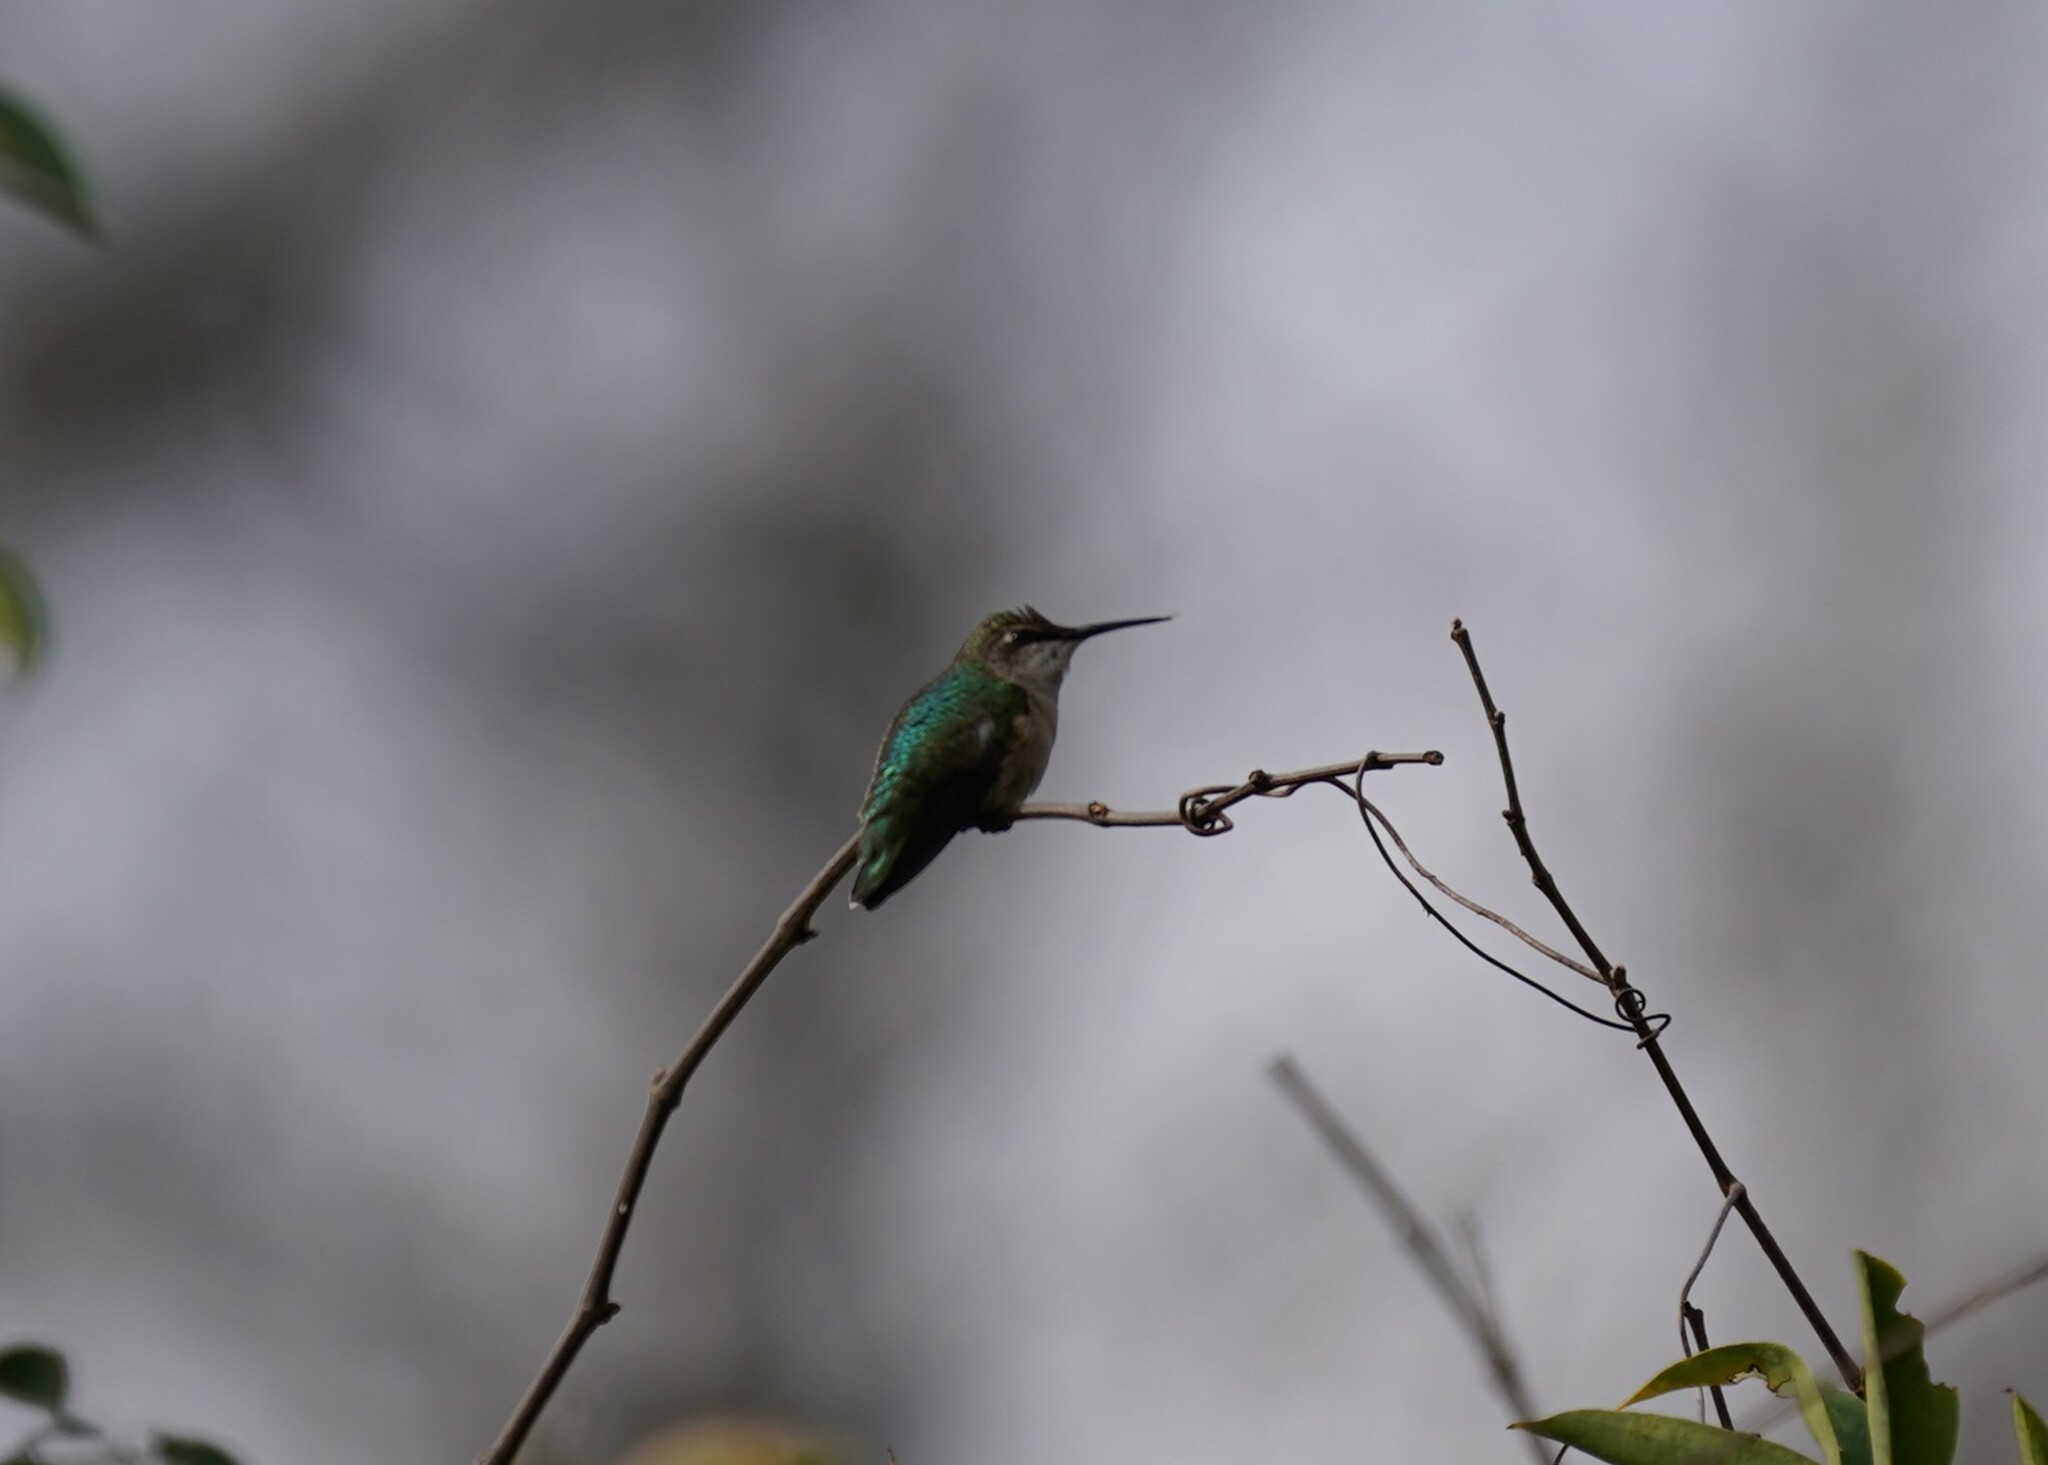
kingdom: Animalia
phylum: Chordata
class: Aves
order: Apodiformes
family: Trochilidae
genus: Archilochus
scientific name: Archilochus colubris
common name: Ruby-throated hummingbird
